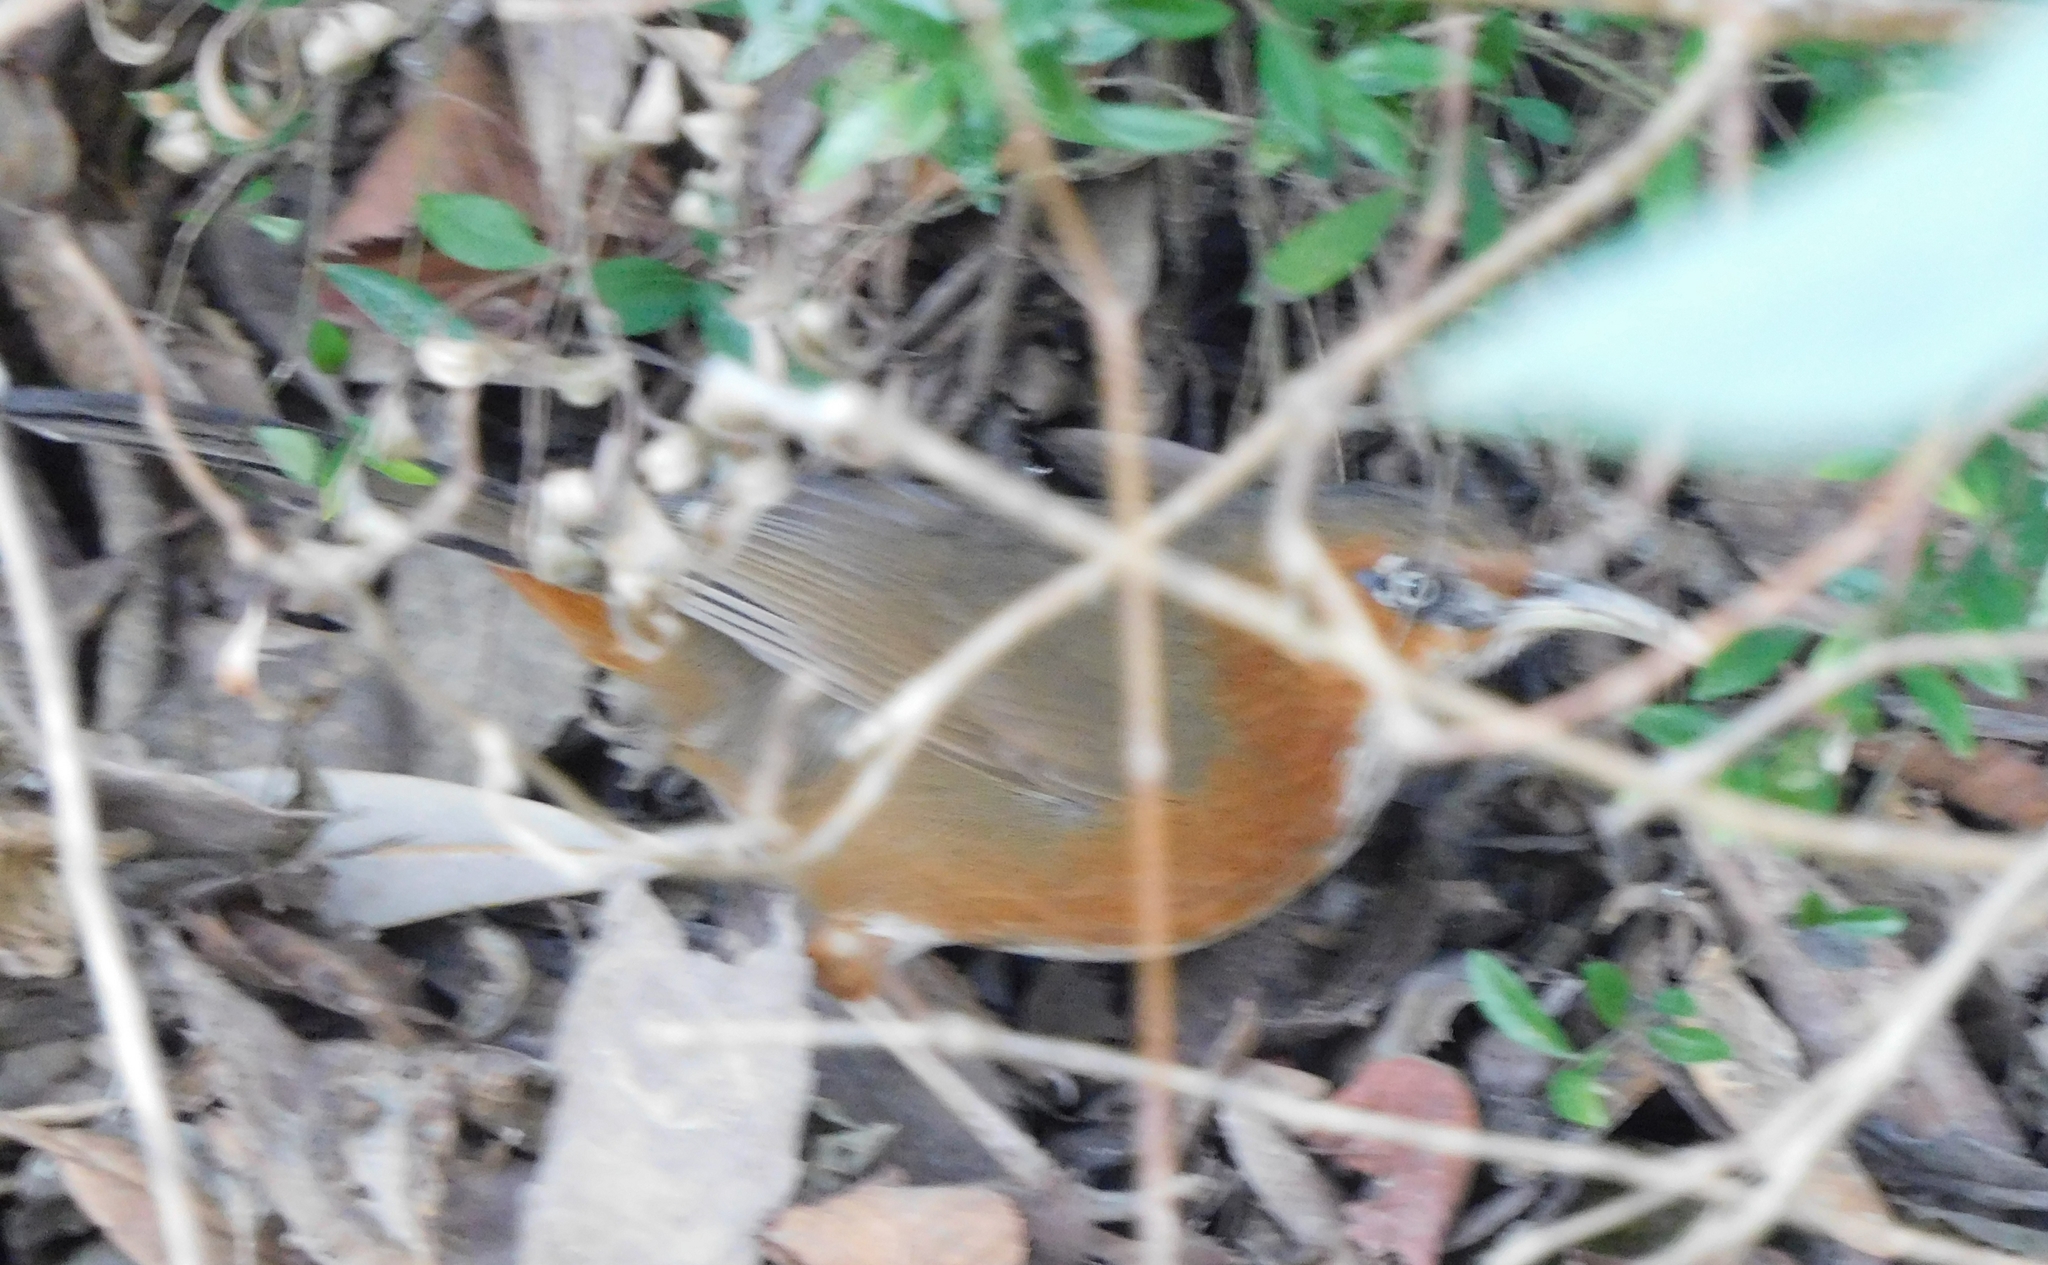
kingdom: Animalia
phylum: Chordata
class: Aves
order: Passeriformes
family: Timaliidae
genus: Pomatorhinus
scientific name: Pomatorhinus erythrogenys
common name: Rusty-cheeked scimitar babbler
